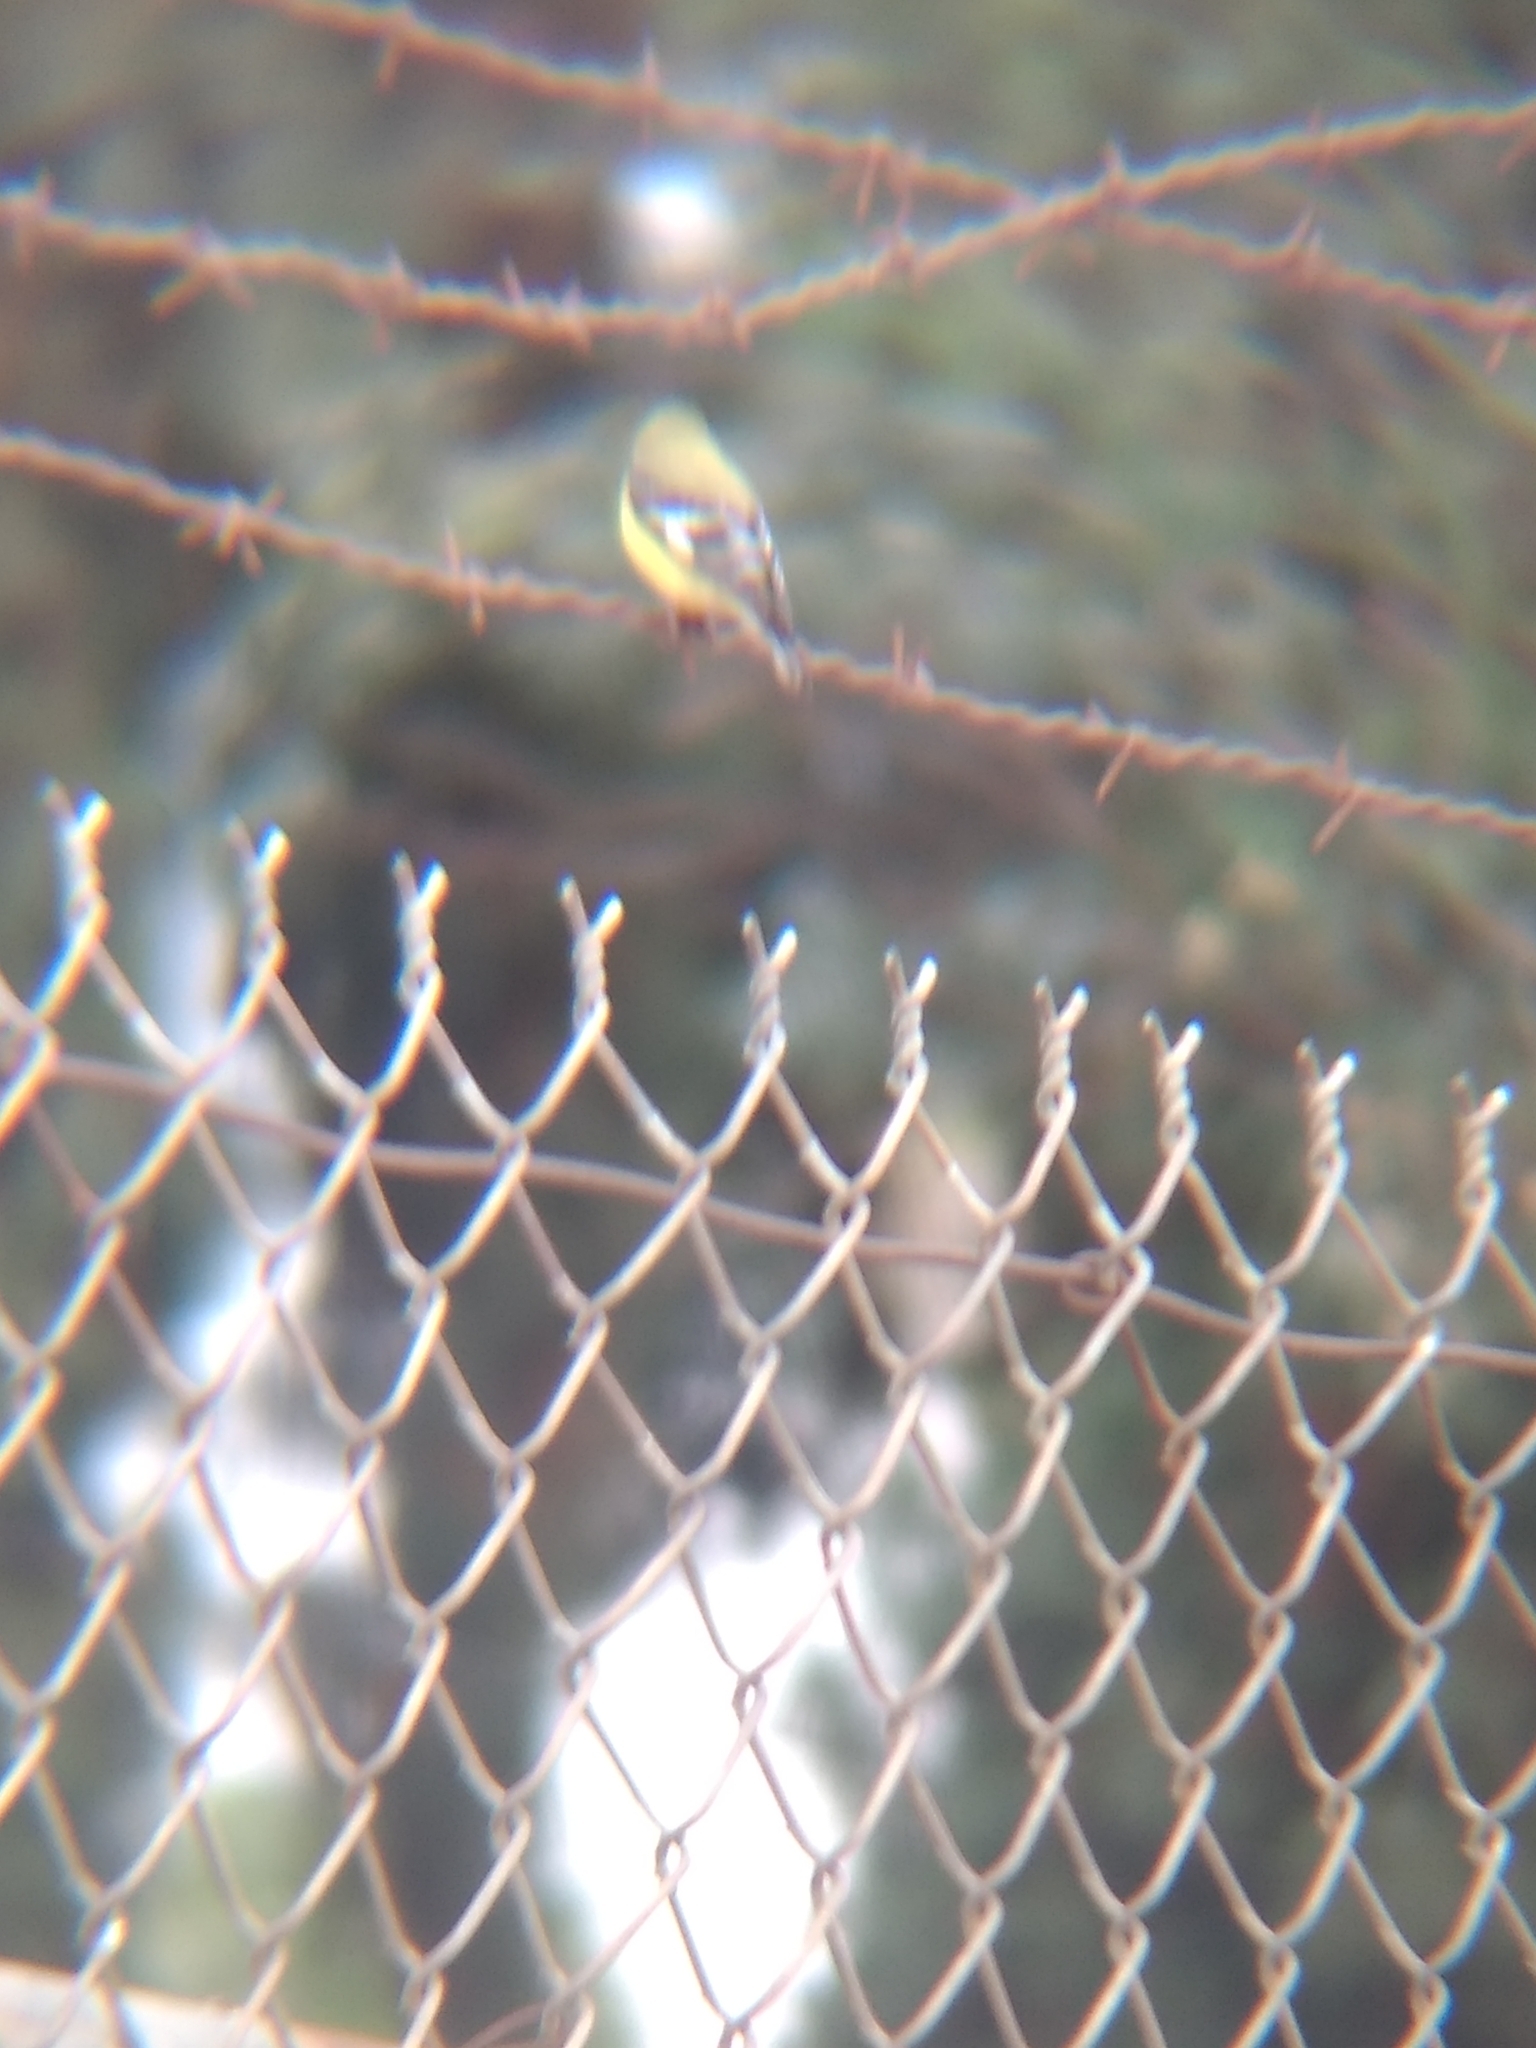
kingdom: Animalia
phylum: Chordata
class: Aves
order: Passeriformes
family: Fringillidae
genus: Spinus
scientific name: Spinus psaltria
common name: Lesser goldfinch
